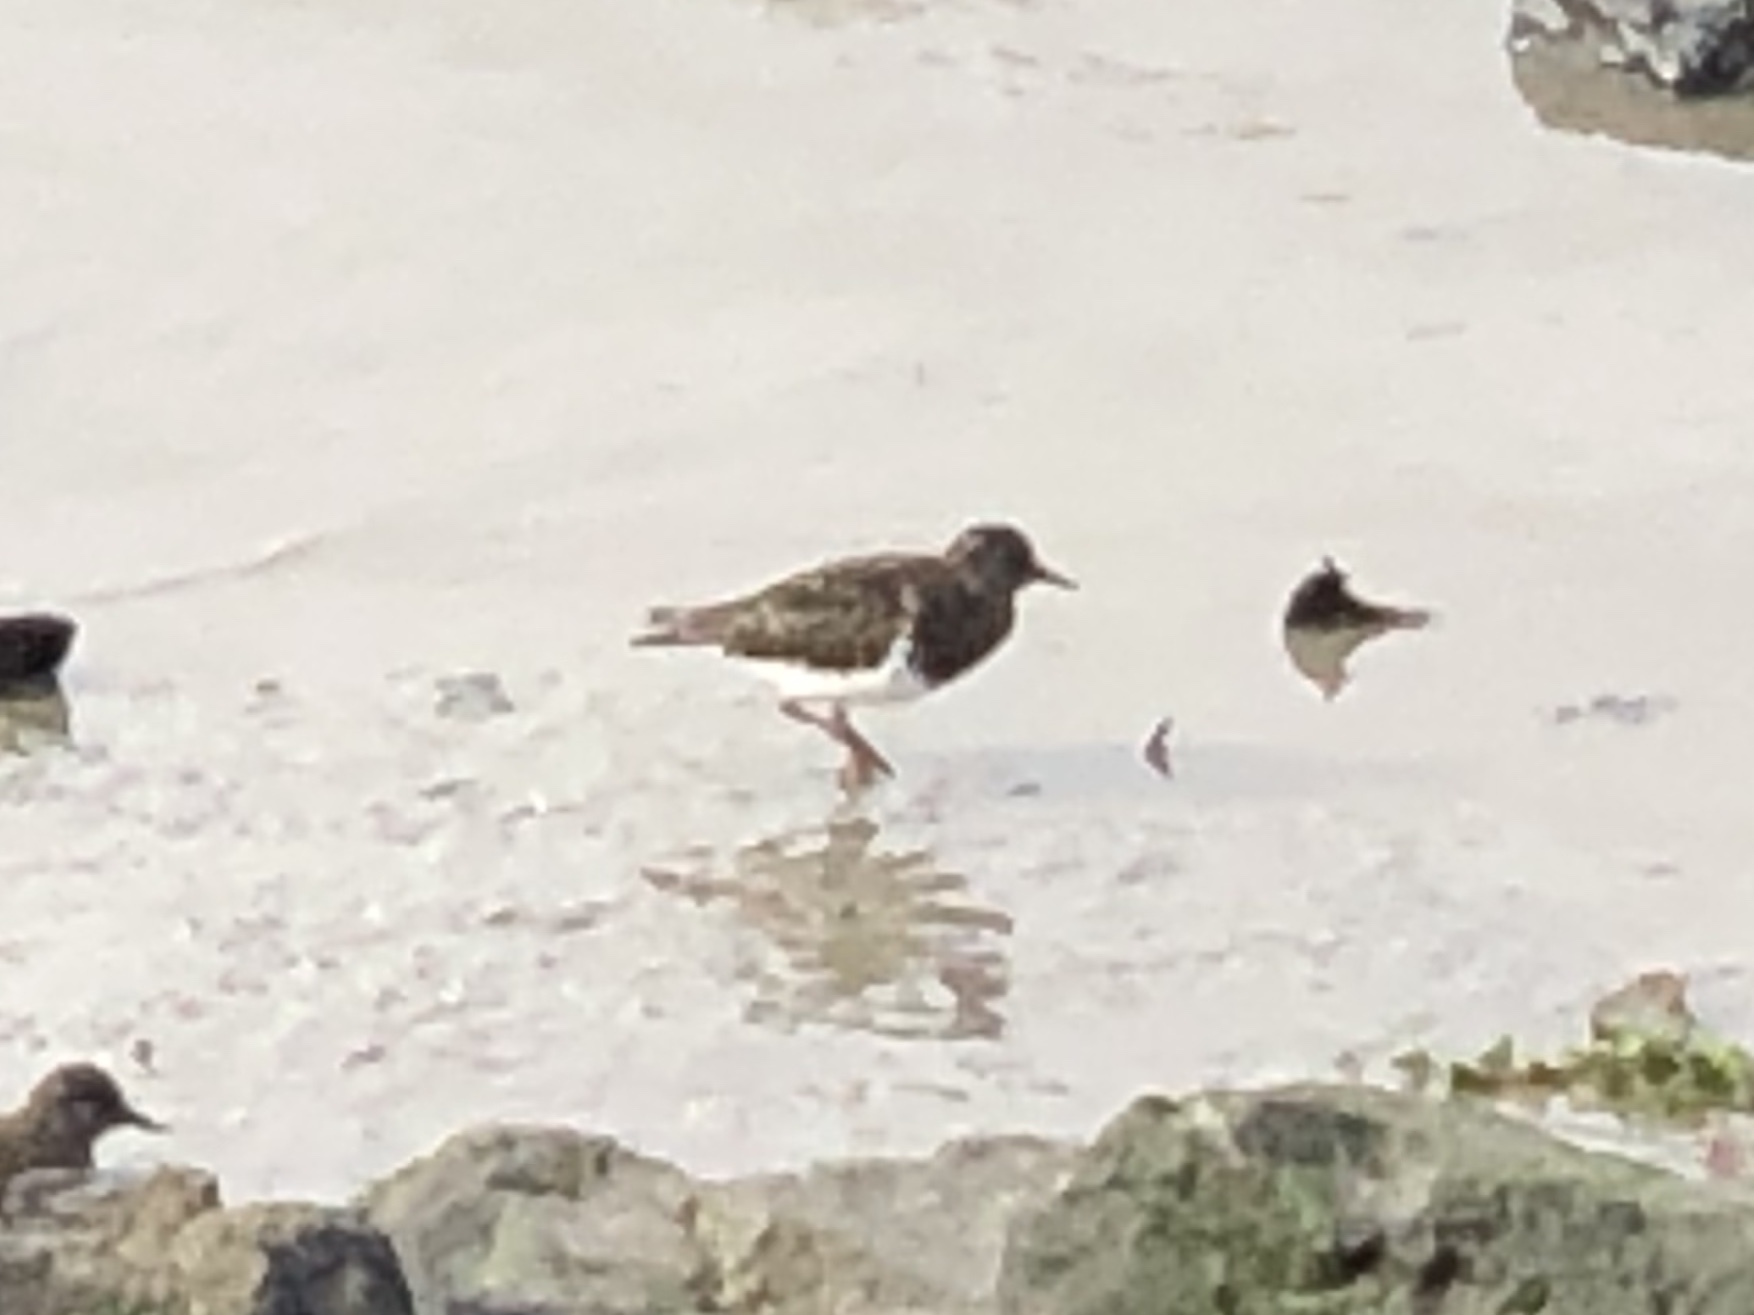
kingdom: Animalia
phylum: Chordata
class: Aves
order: Charadriiformes
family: Scolopacidae
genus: Arenaria
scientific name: Arenaria melanocephala
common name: Black turnstone
